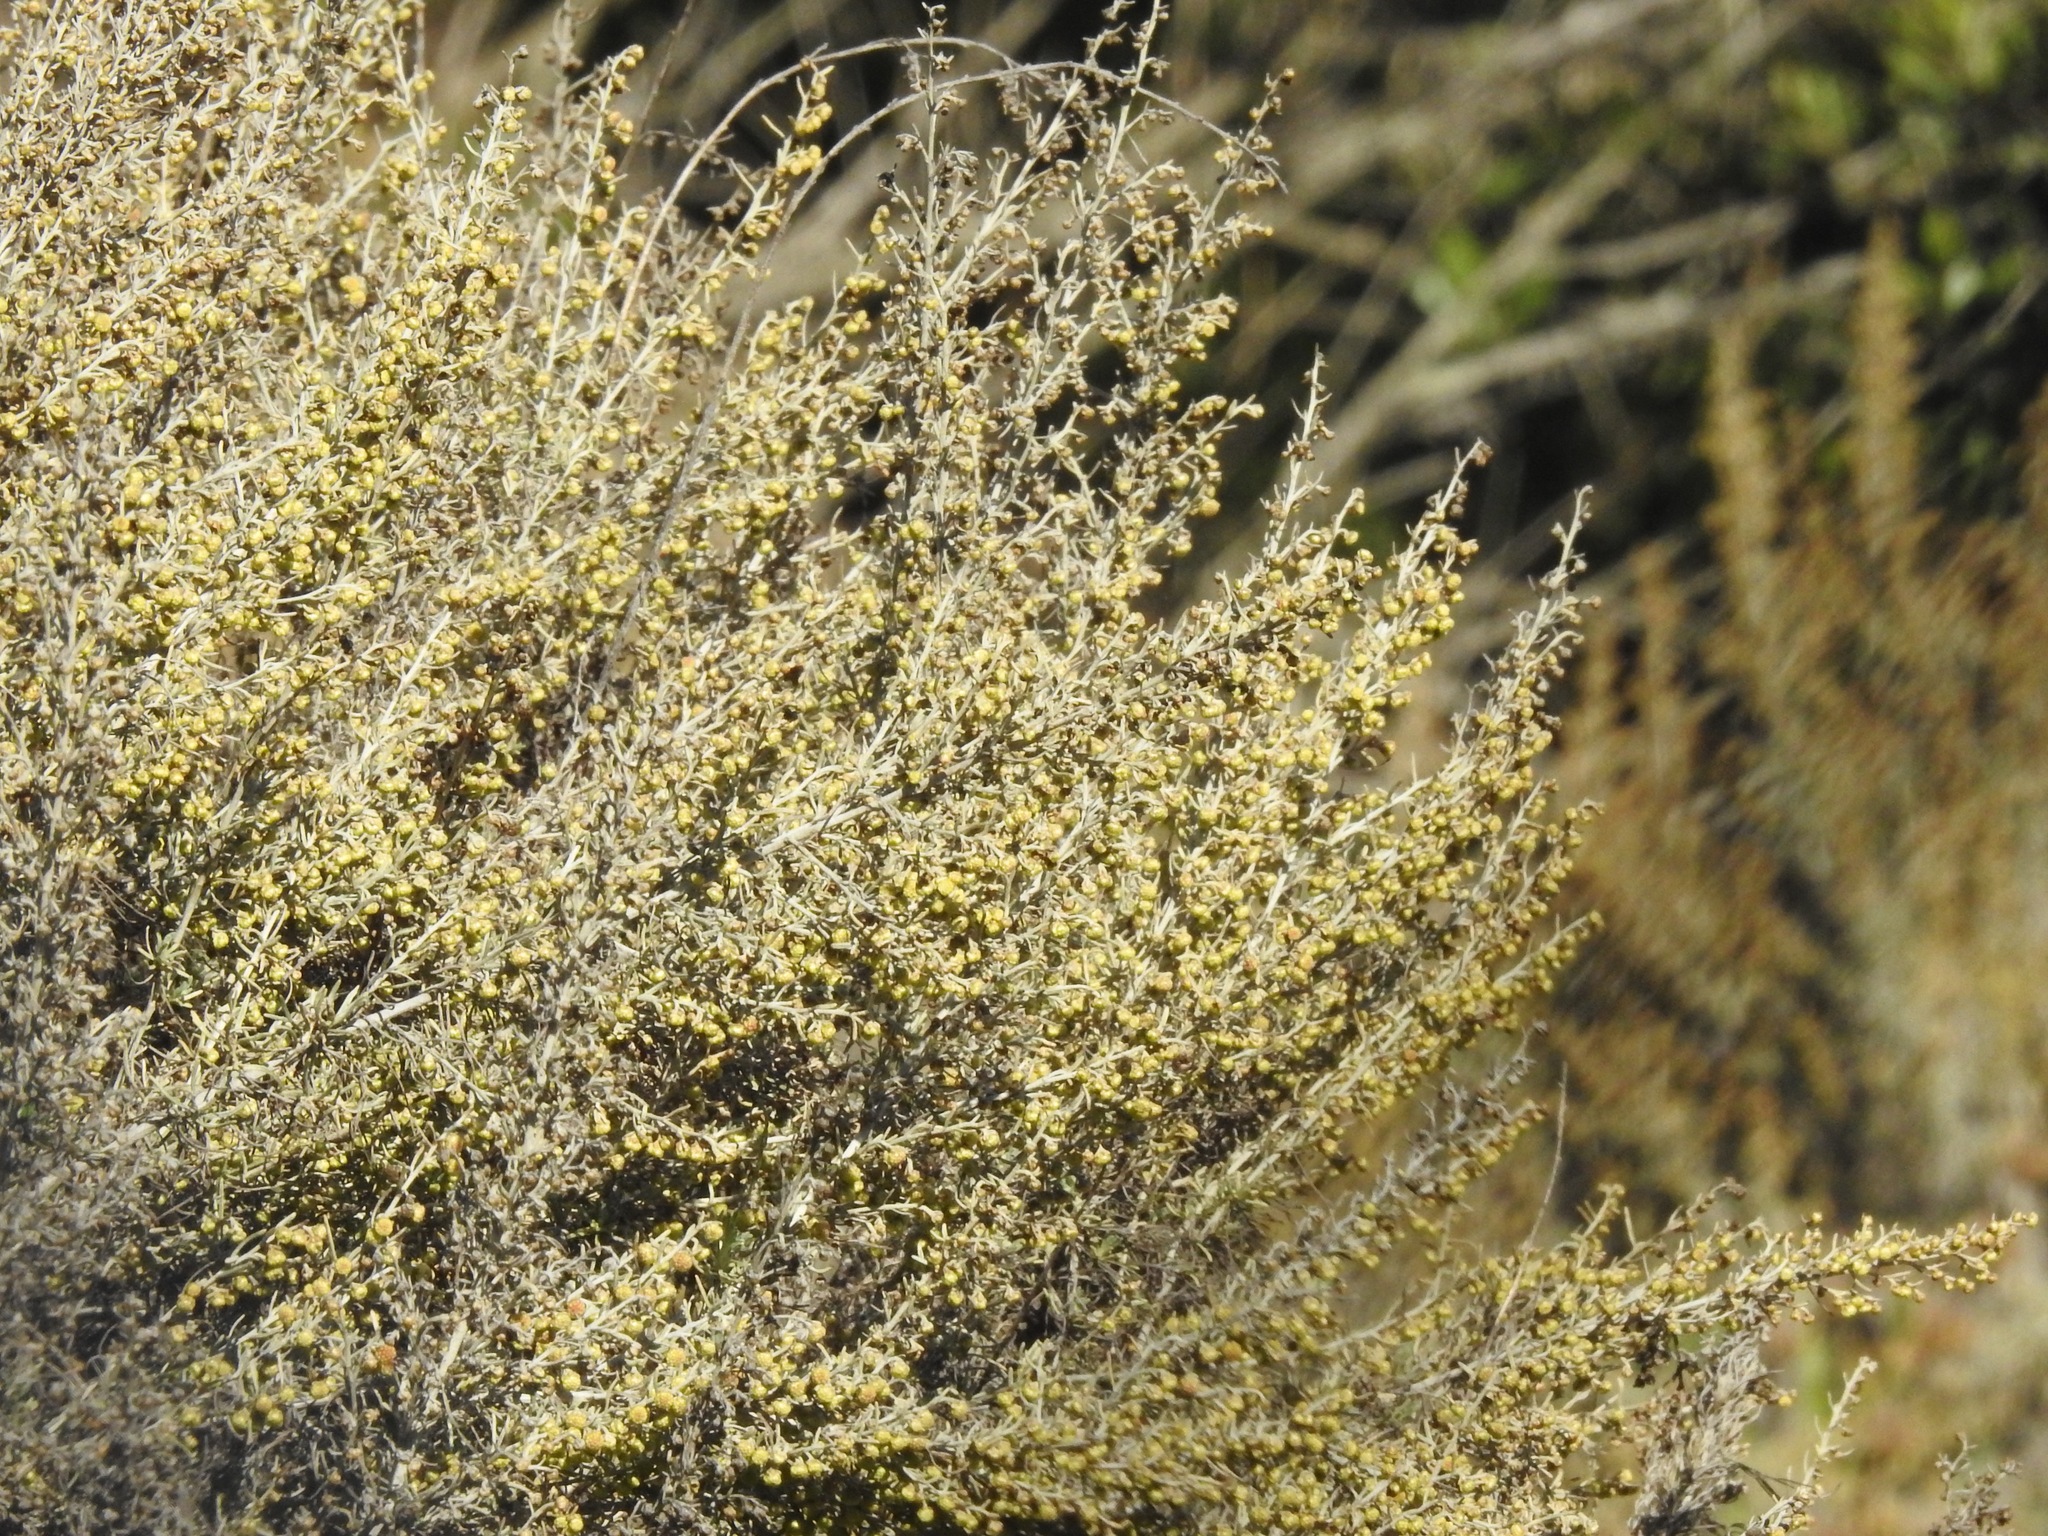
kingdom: Plantae
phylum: Tracheophyta
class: Magnoliopsida
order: Asterales
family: Asteraceae
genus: Artemisia
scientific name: Artemisia californica
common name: California sagebrush
